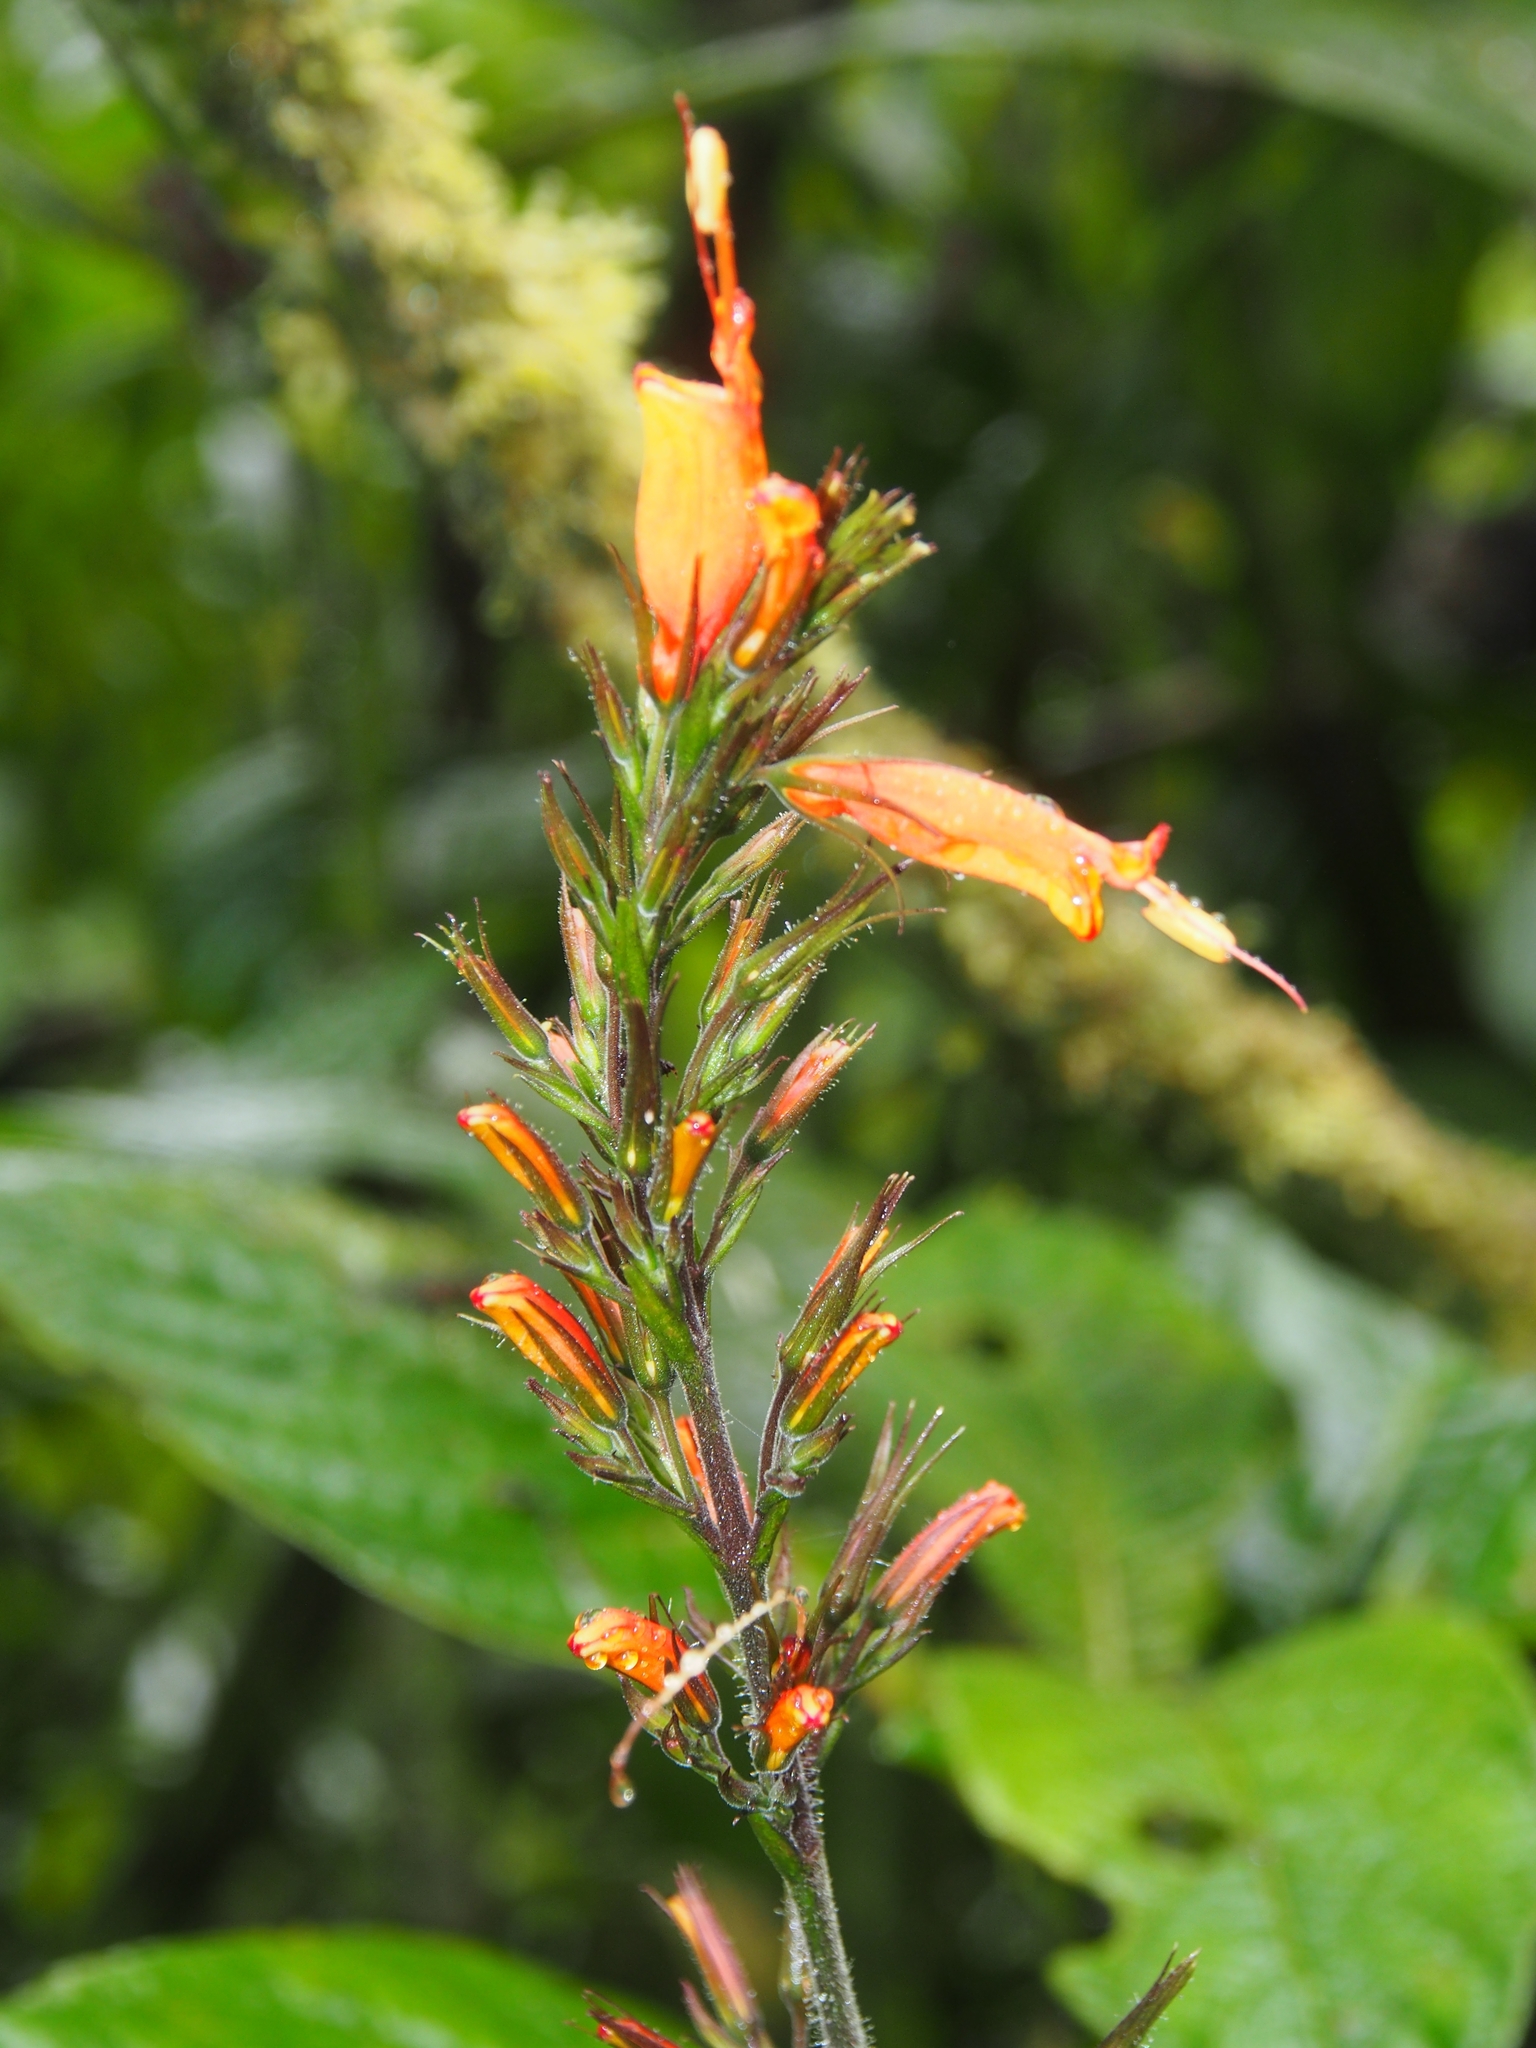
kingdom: Plantae
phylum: Tracheophyta
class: Magnoliopsida
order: Lamiales
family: Acanthaceae
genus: Stenostephanus
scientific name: Stenostephanus leiorhachis
